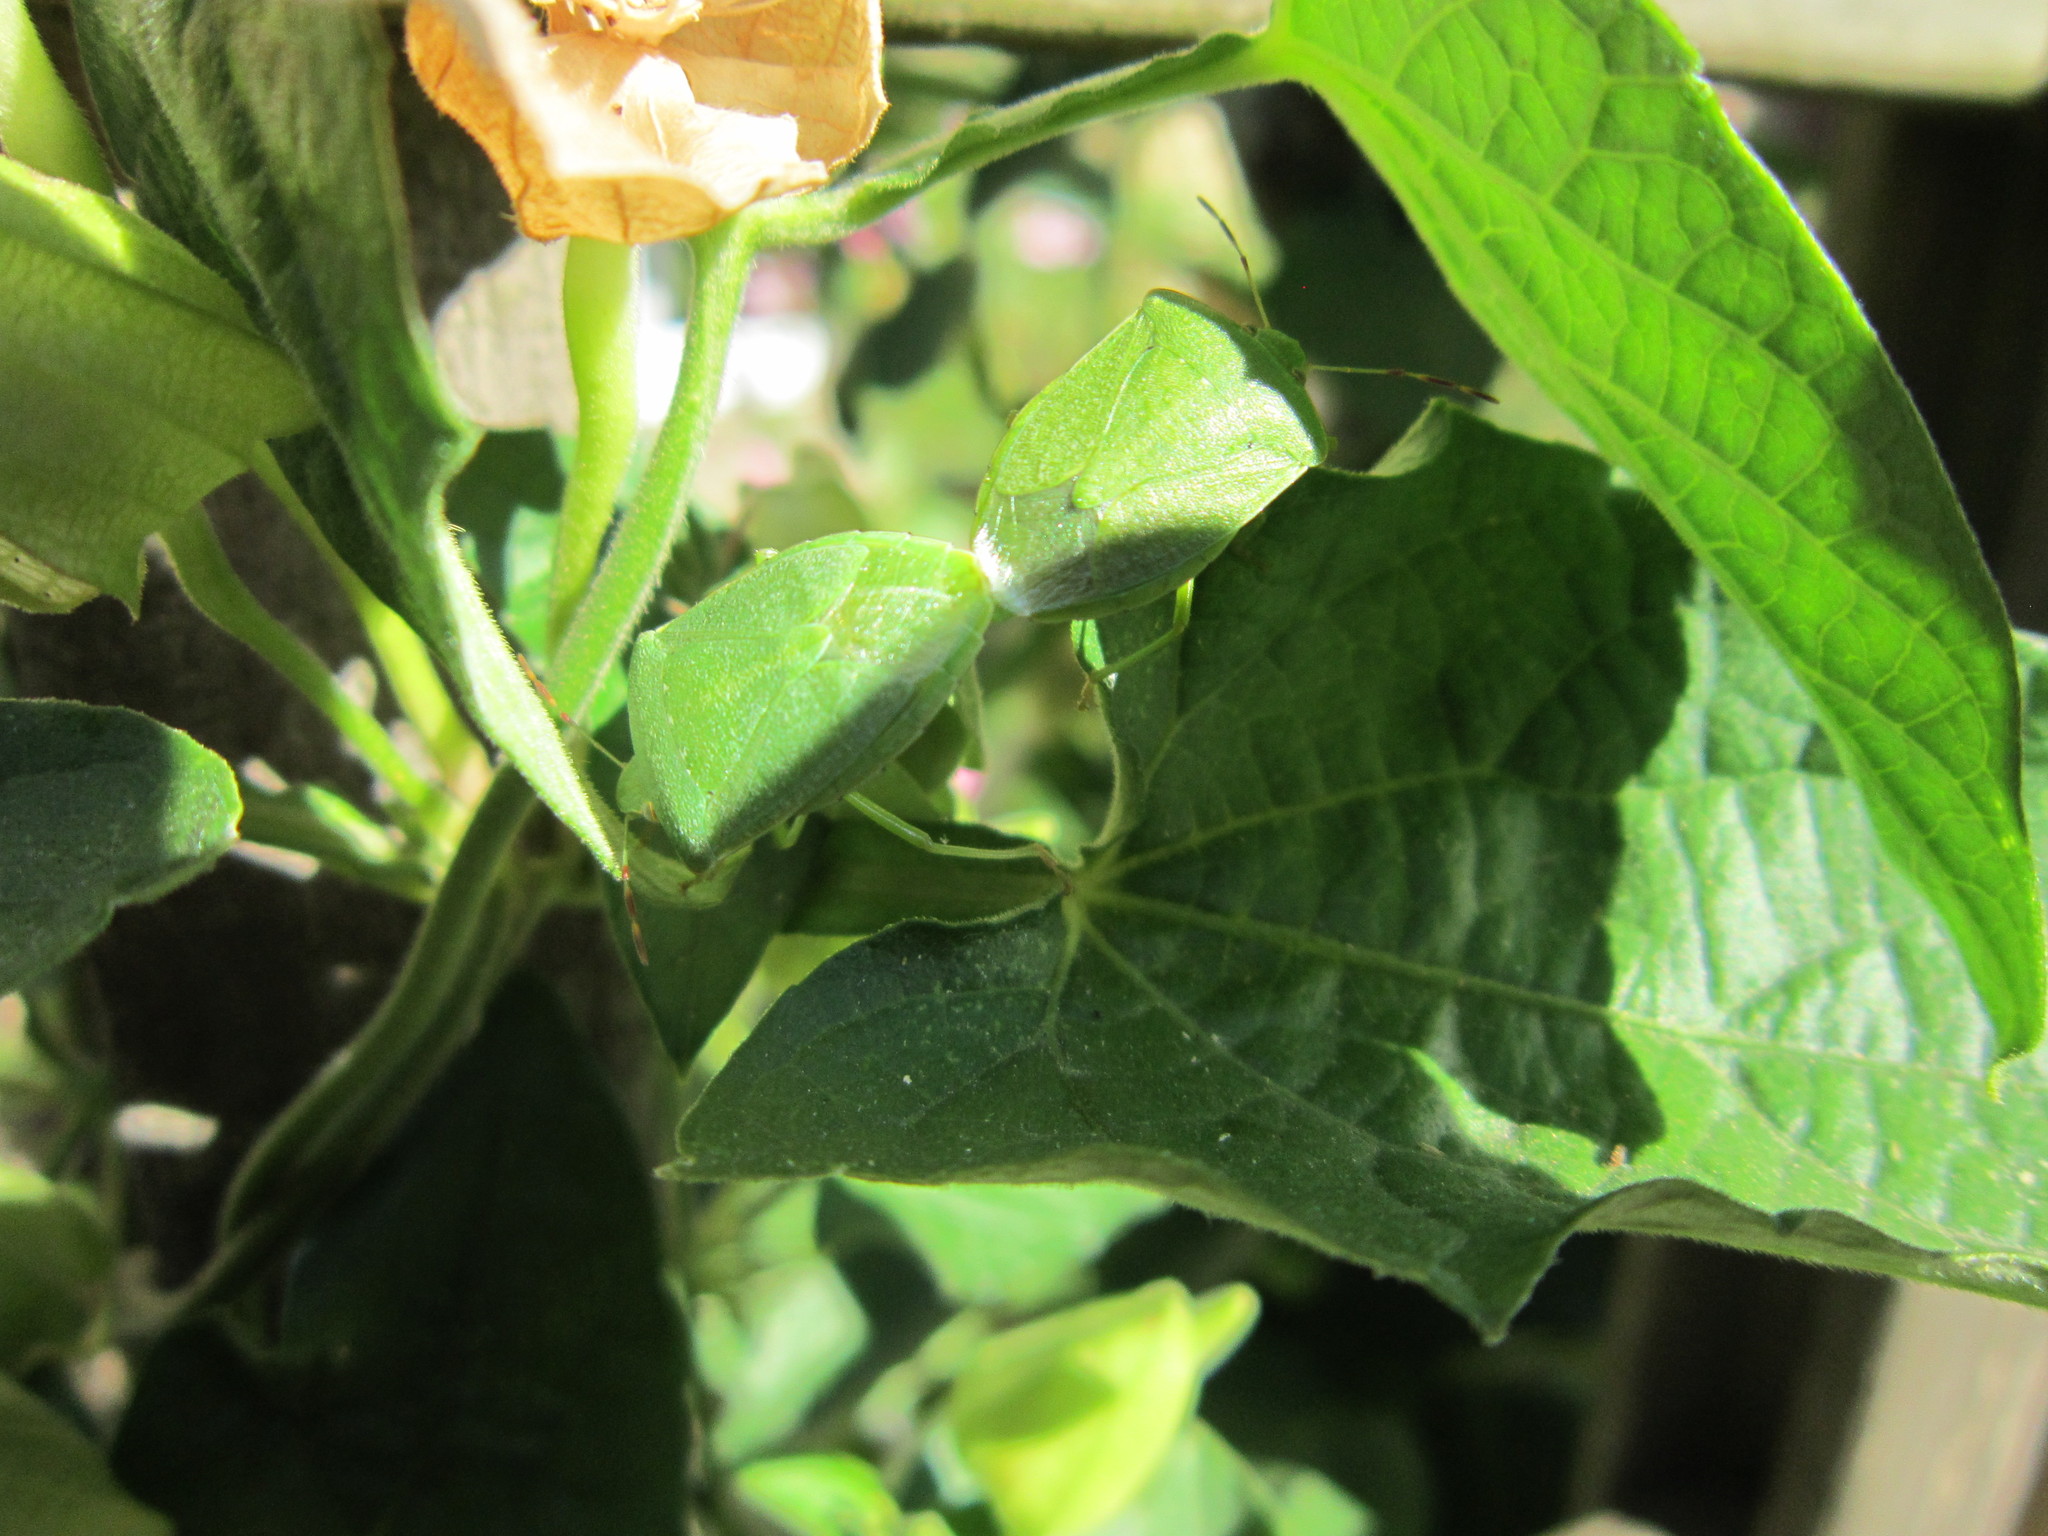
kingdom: Animalia
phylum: Arthropoda
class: Insecta
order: Hemiptera
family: Pentatomidae
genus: Nezara
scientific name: Nezara viridula
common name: Southern green stink bug
